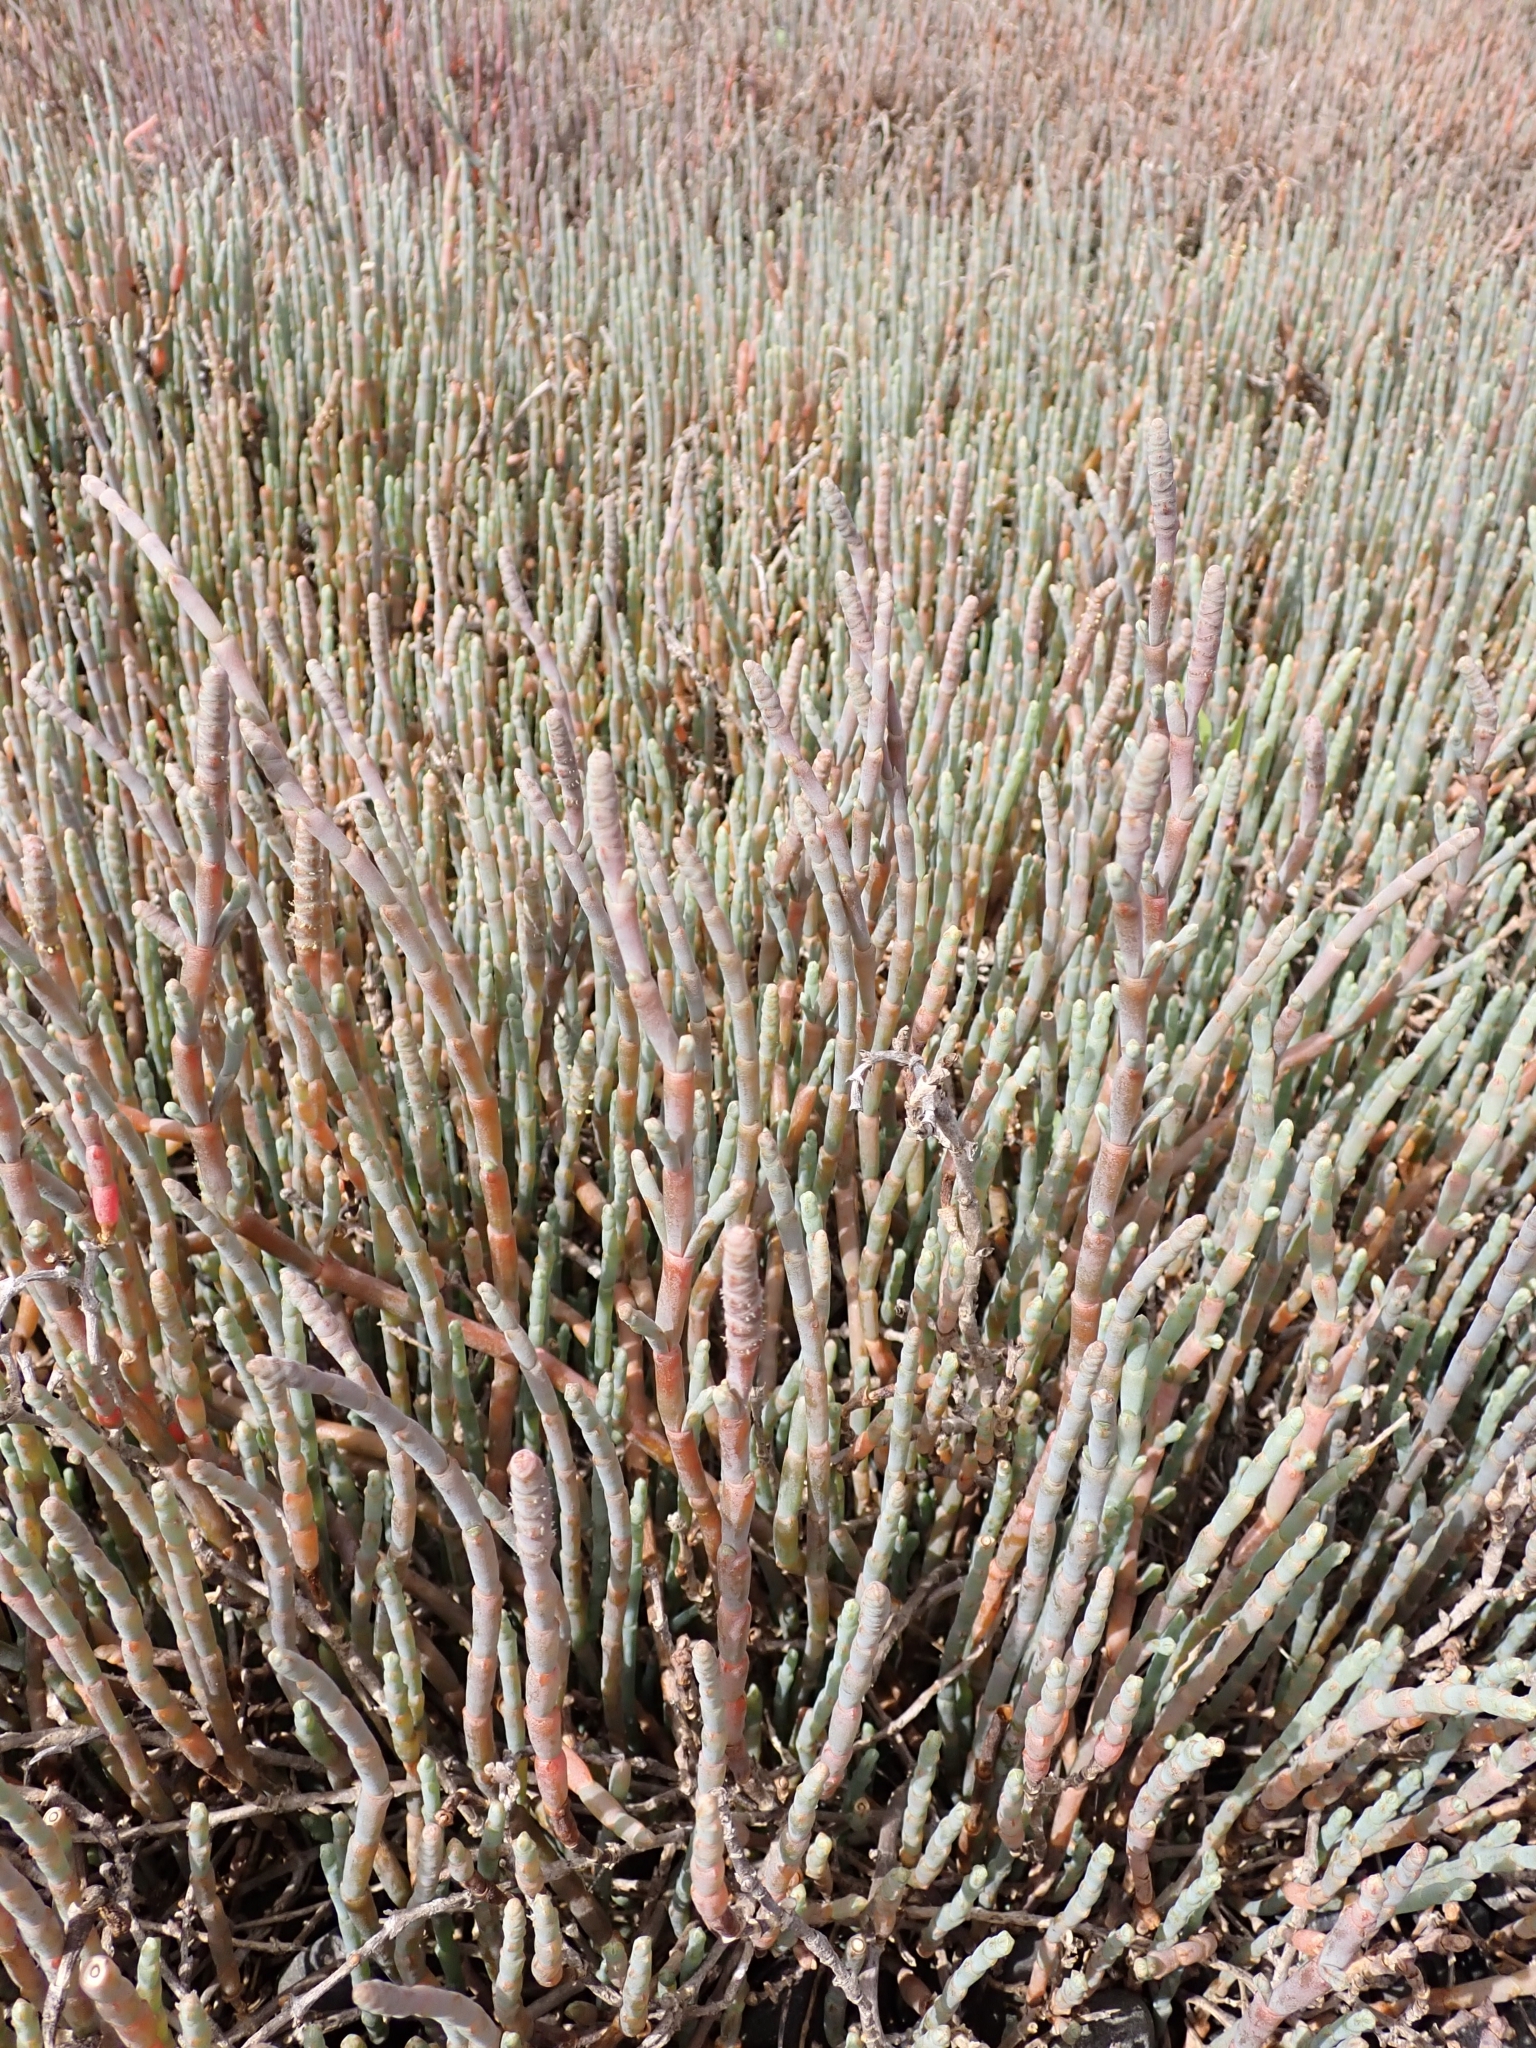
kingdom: Plantae
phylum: Tracheophyta
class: Magnoliopsida
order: Caryophyllales
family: Amaranthaceae
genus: Salicornia
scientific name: Salicornia quinqueflora
